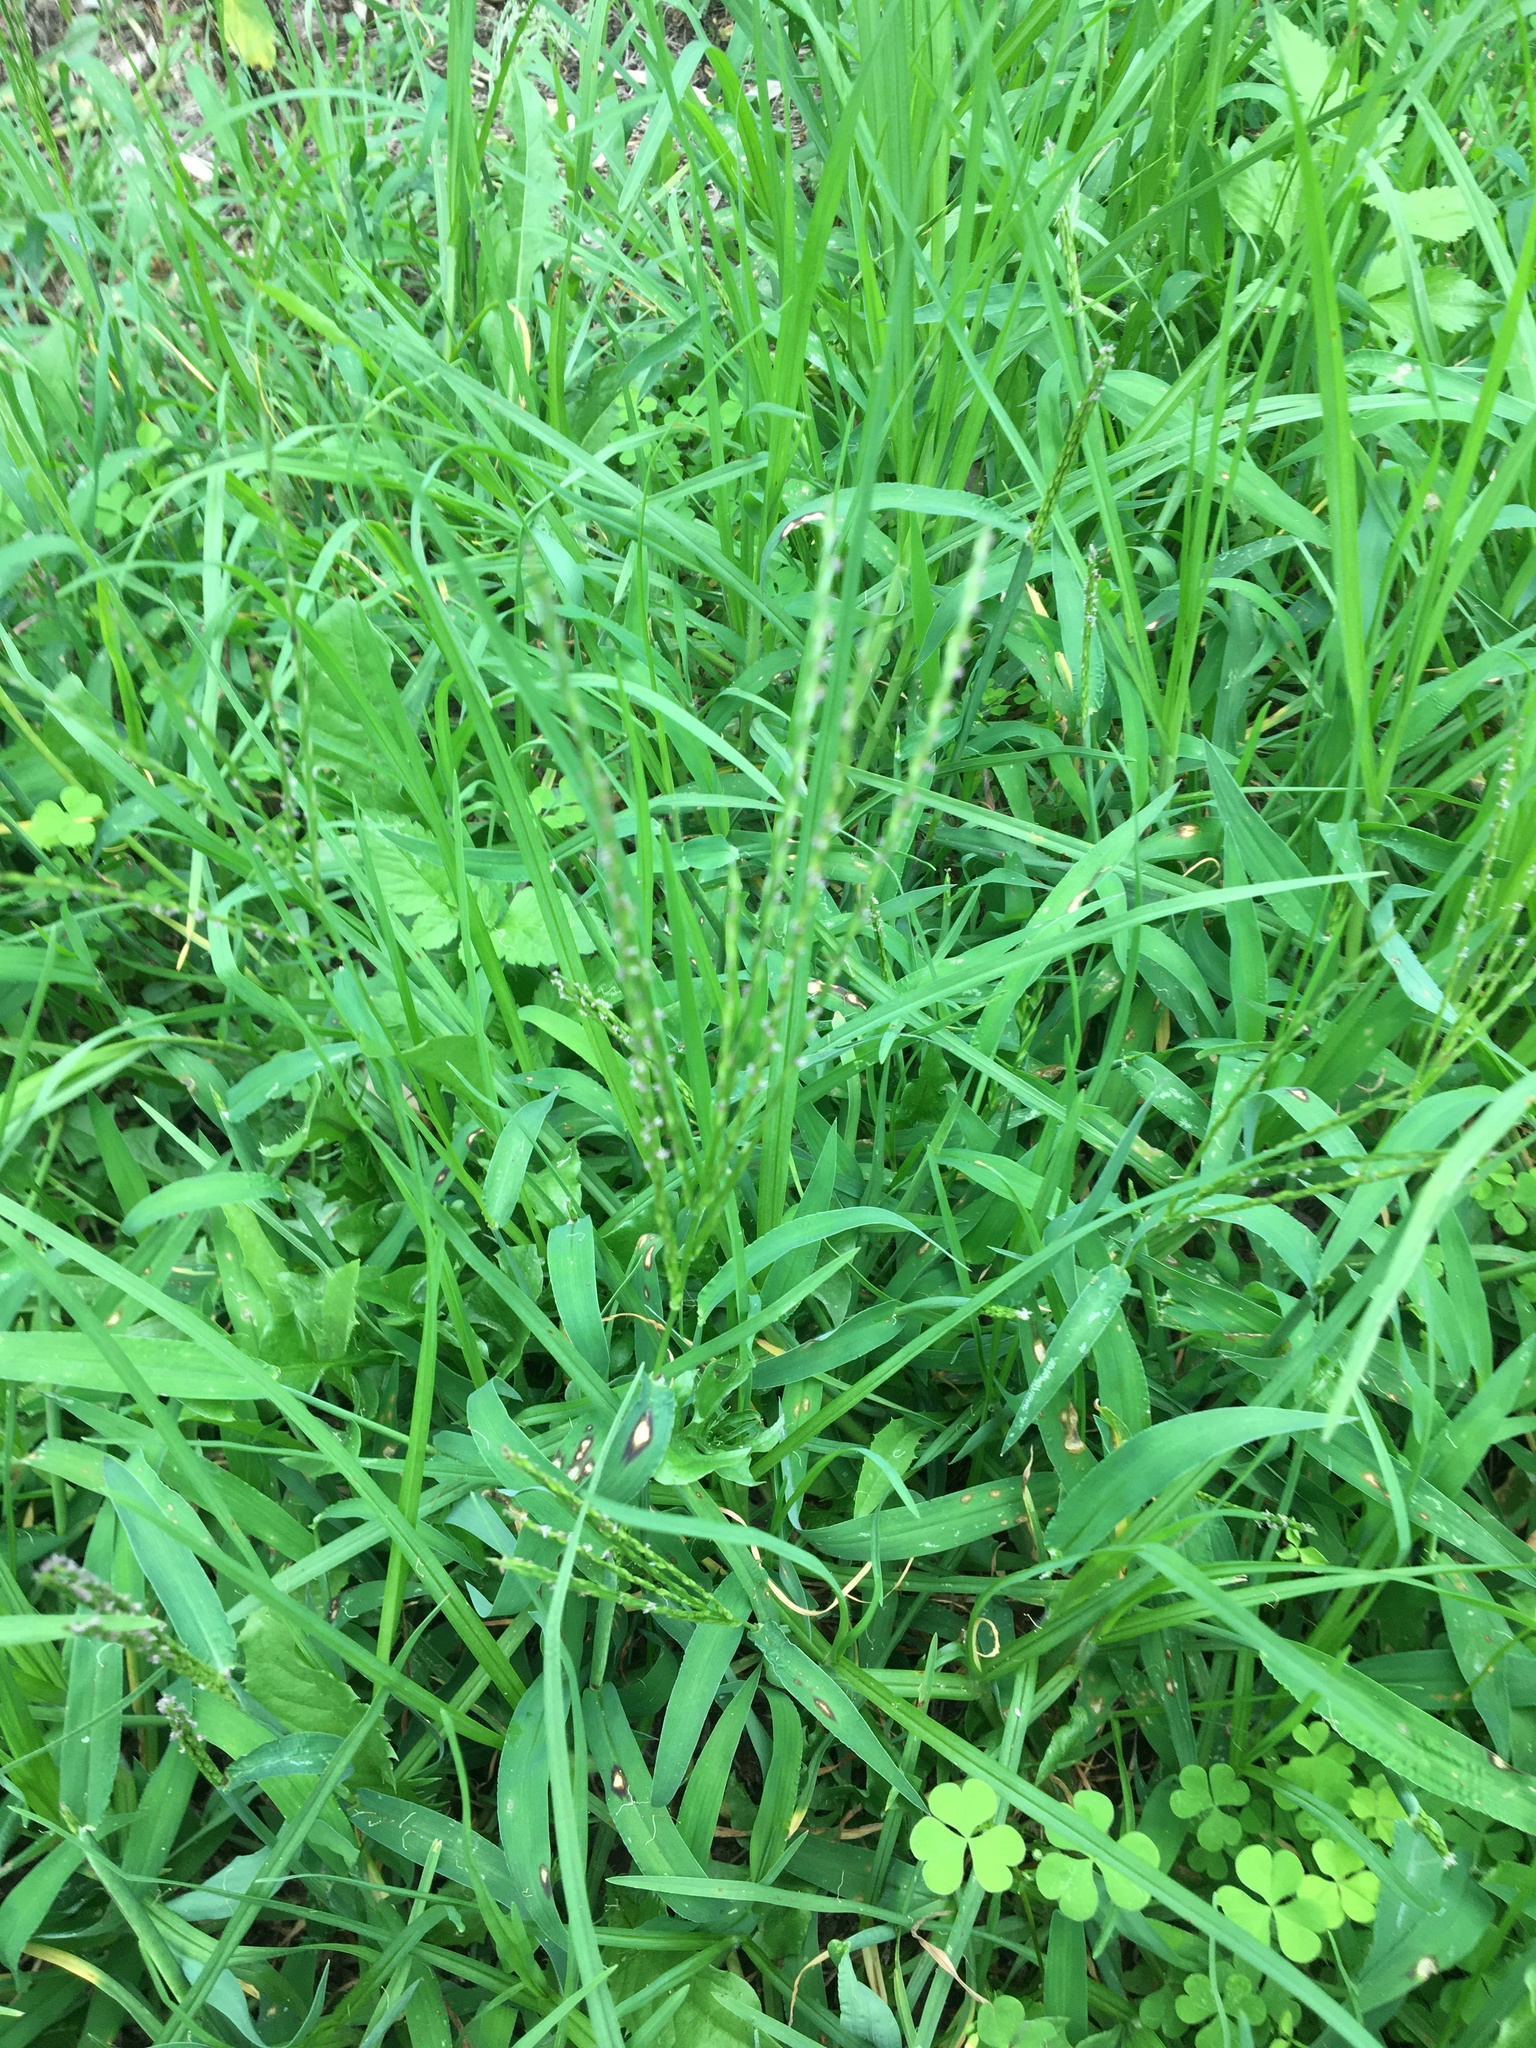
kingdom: Plantae
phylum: Tracheophyta
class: Liliopsida
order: Poales
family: Poaceae
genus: Digitaria
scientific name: Digitaria sanguinalis
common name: Hairy crabgrass
